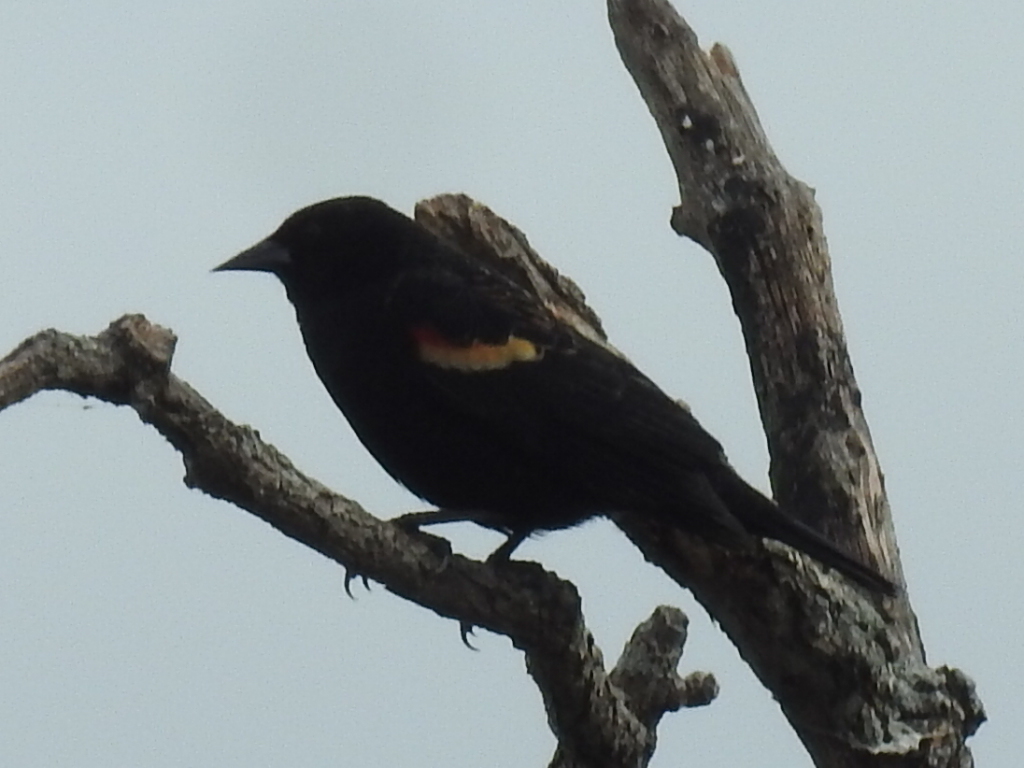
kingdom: Animalia
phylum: Chordata
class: Aves
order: Passeriformes
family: Icteridae
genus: Agelaius
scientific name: Agelaius phoeniceus
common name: Red-winged blackbird
